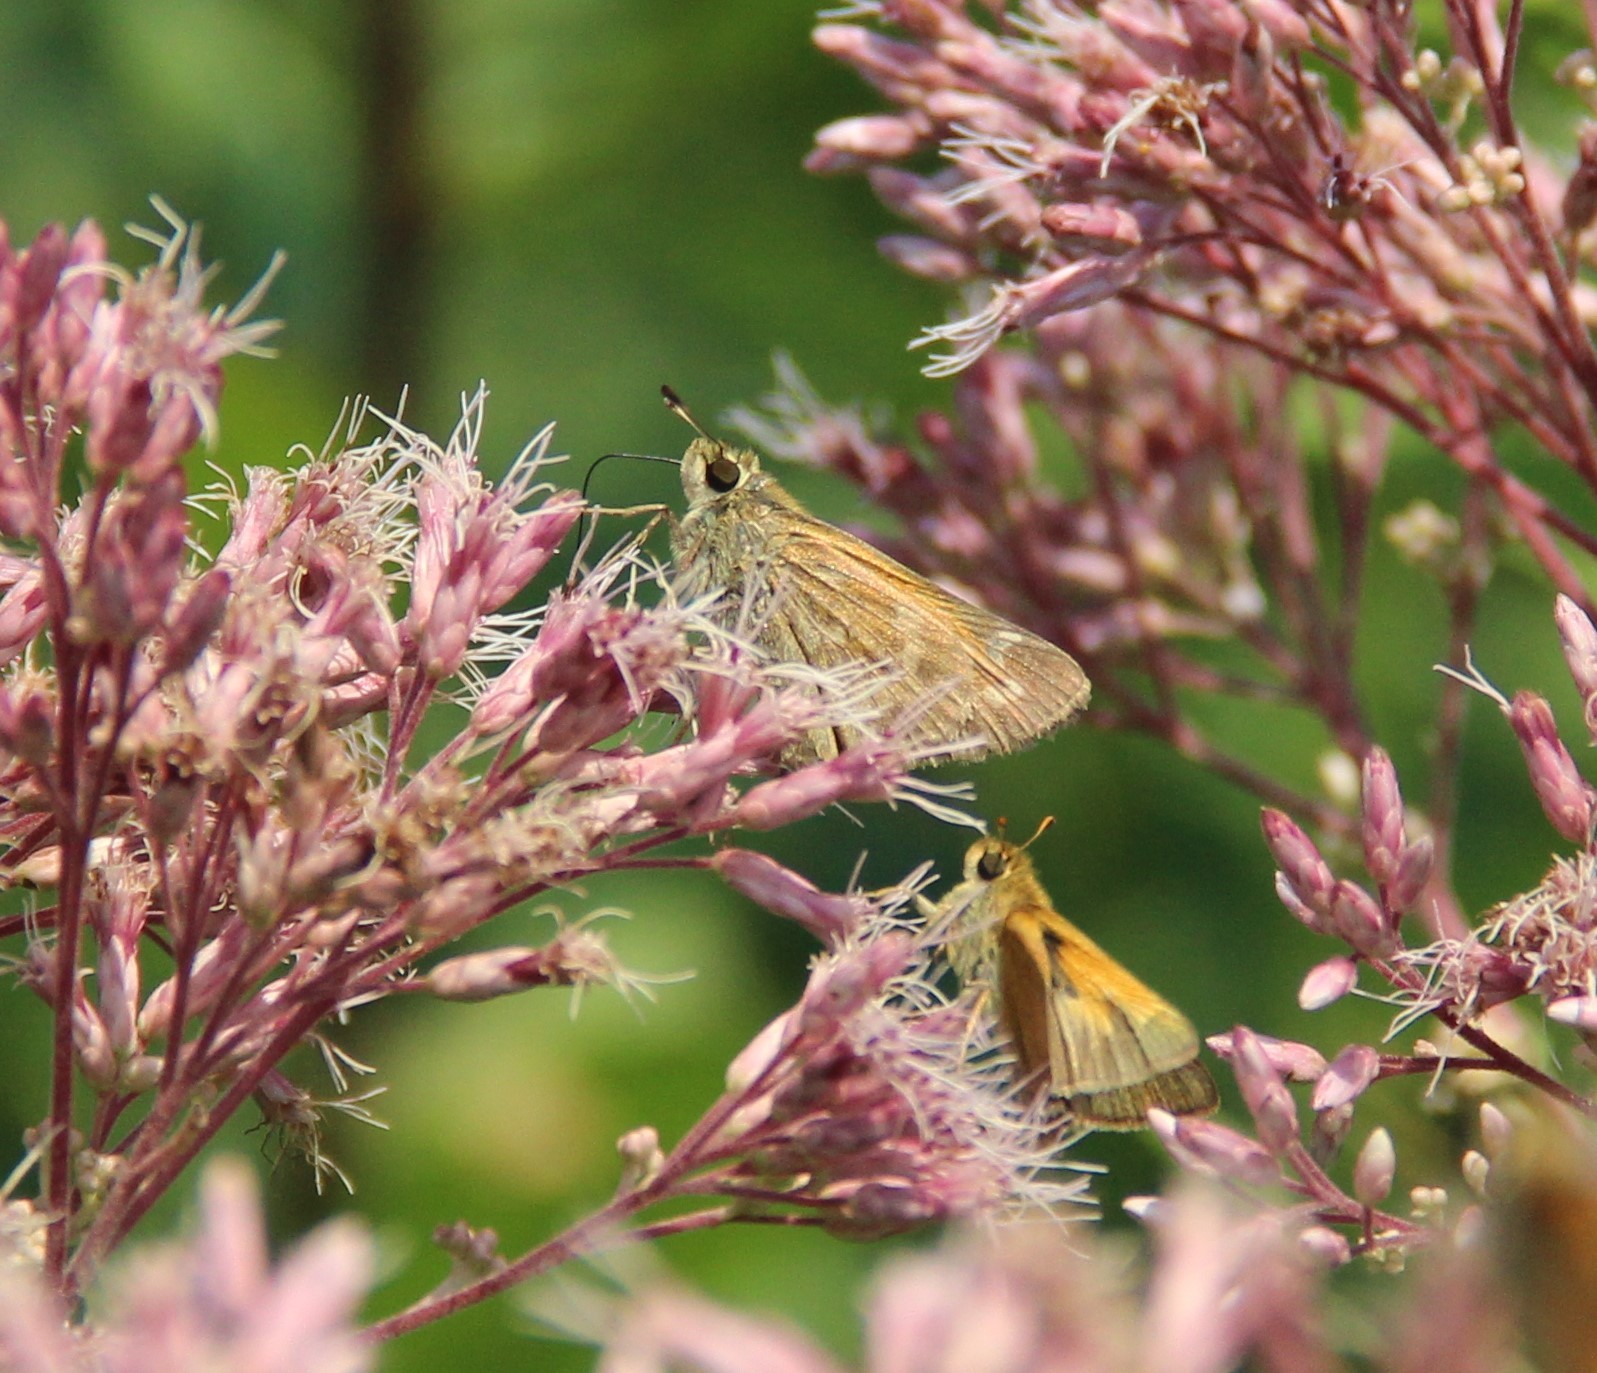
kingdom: Animalia
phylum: Arthropoda
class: Insecta
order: Lepidoptera
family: Hesperiidae
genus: Atalopedes
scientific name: Atalopedes
